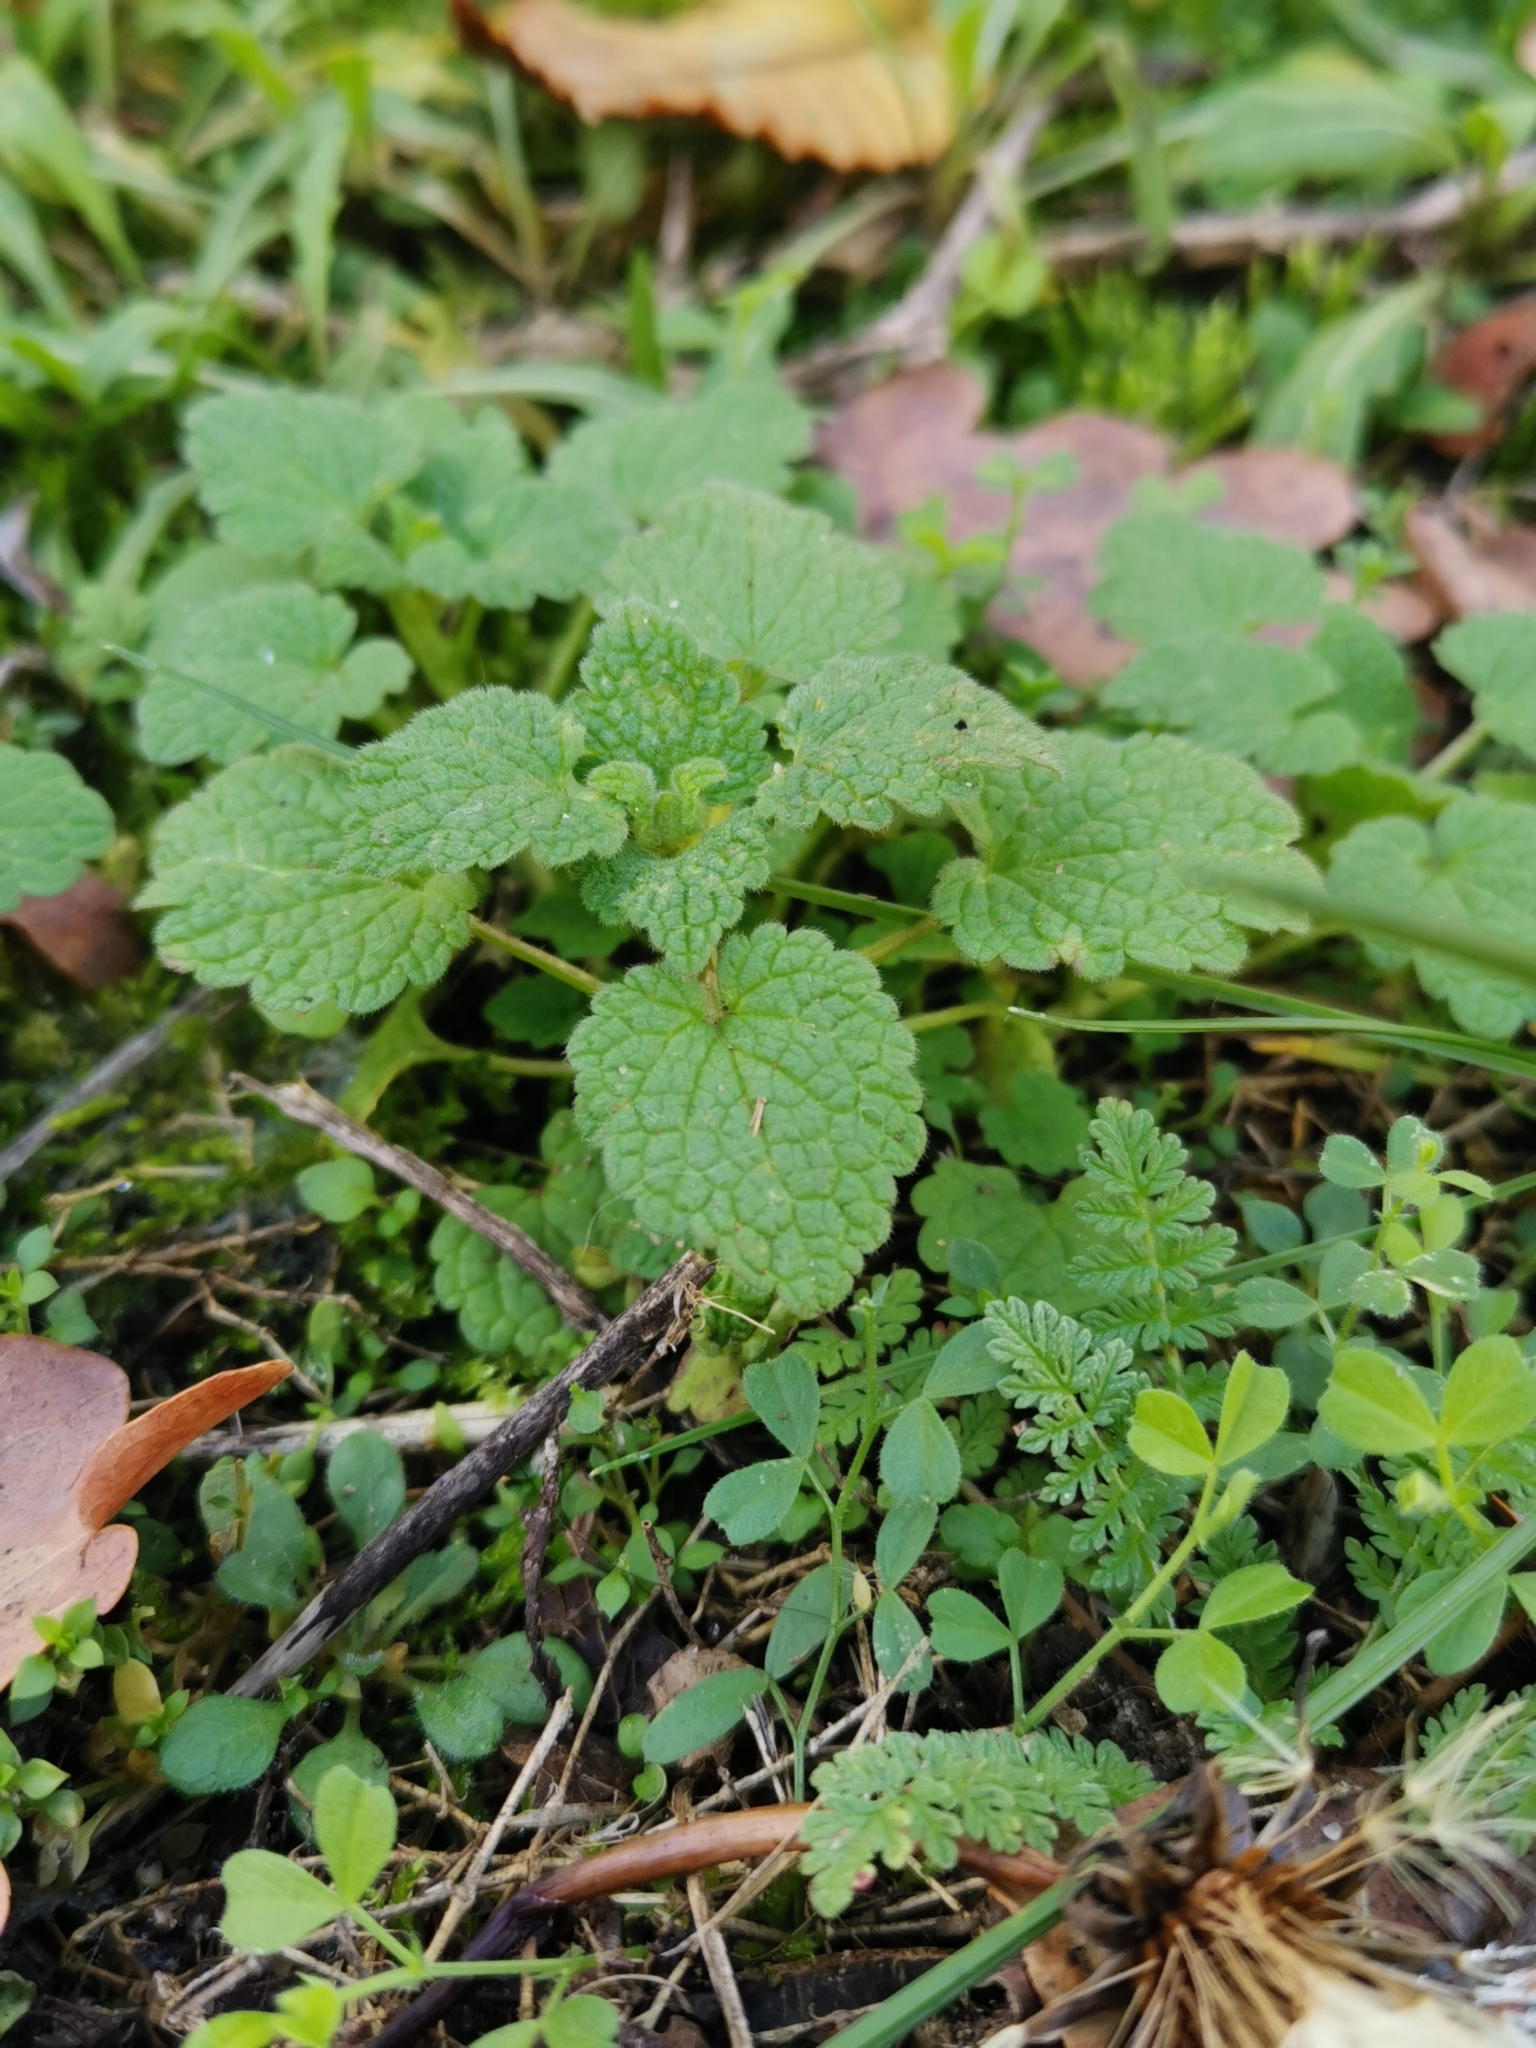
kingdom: Plantae
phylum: Tracheophyta
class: Magnoliopsida
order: Lamiales
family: Lamiaceae
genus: Lamium
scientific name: Lamium purpureum
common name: Red dead-nettle
